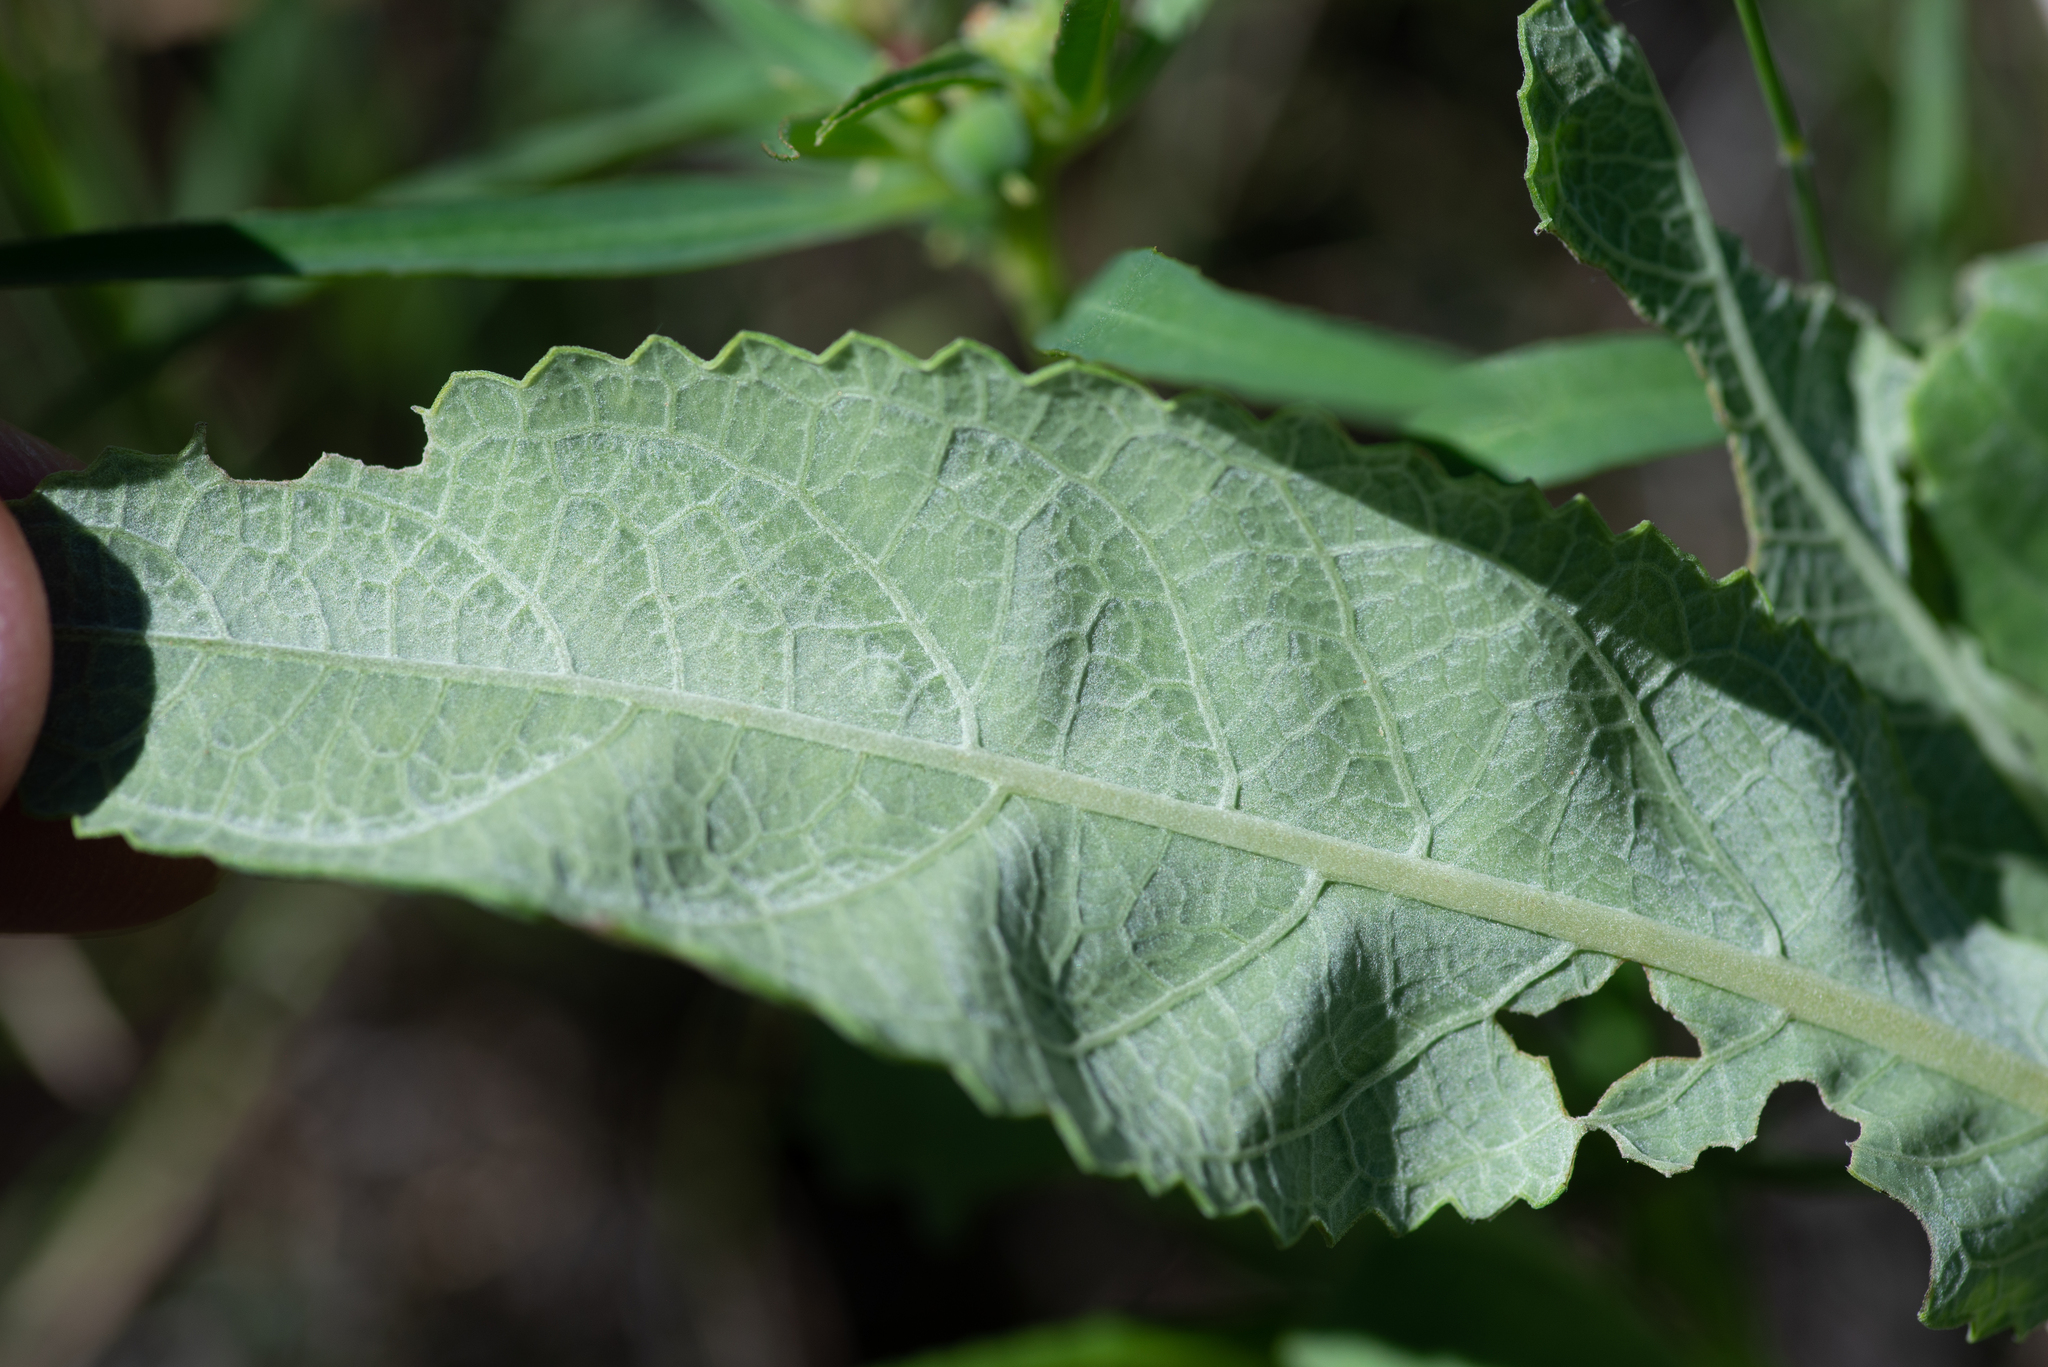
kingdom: Plantae
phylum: Tracheophyta
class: Magnoliopsida
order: Asterales
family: Asteraceae
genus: Berlandiera
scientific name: Berlandiera lyrata
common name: Chocolate-flower
